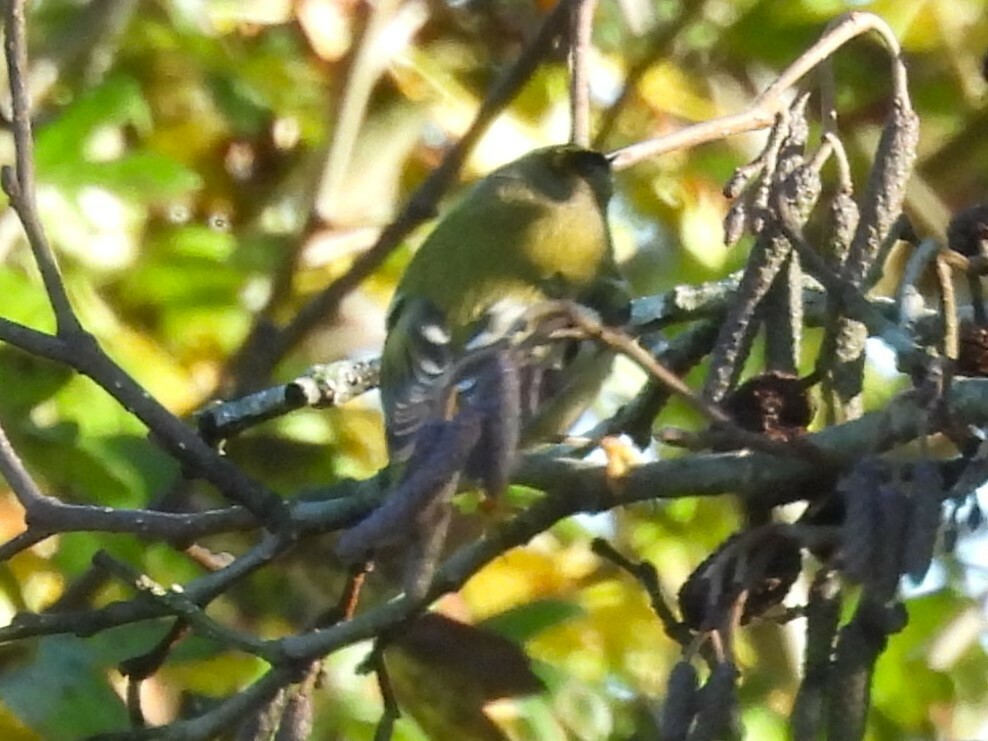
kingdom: Animalia
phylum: Chordata
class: Aves
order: Passeriformes
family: Regulidae
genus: Regulus
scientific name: Regulus regulus
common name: Goldcrest
